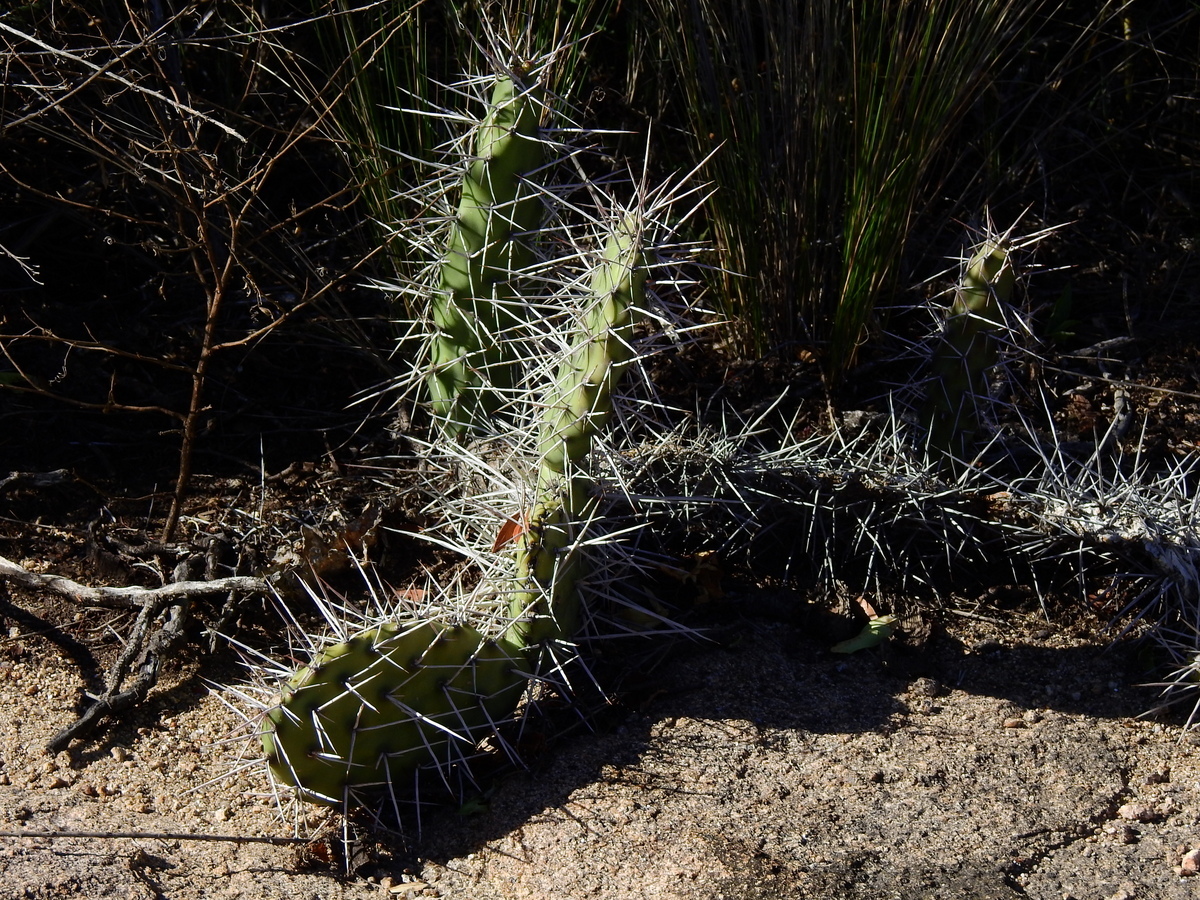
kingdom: Plantae
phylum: Tracheophyta
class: Magnoliopsida
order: Caryophyllales
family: Cactaceae
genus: Opuntia
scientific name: Opuntia sulphurea
